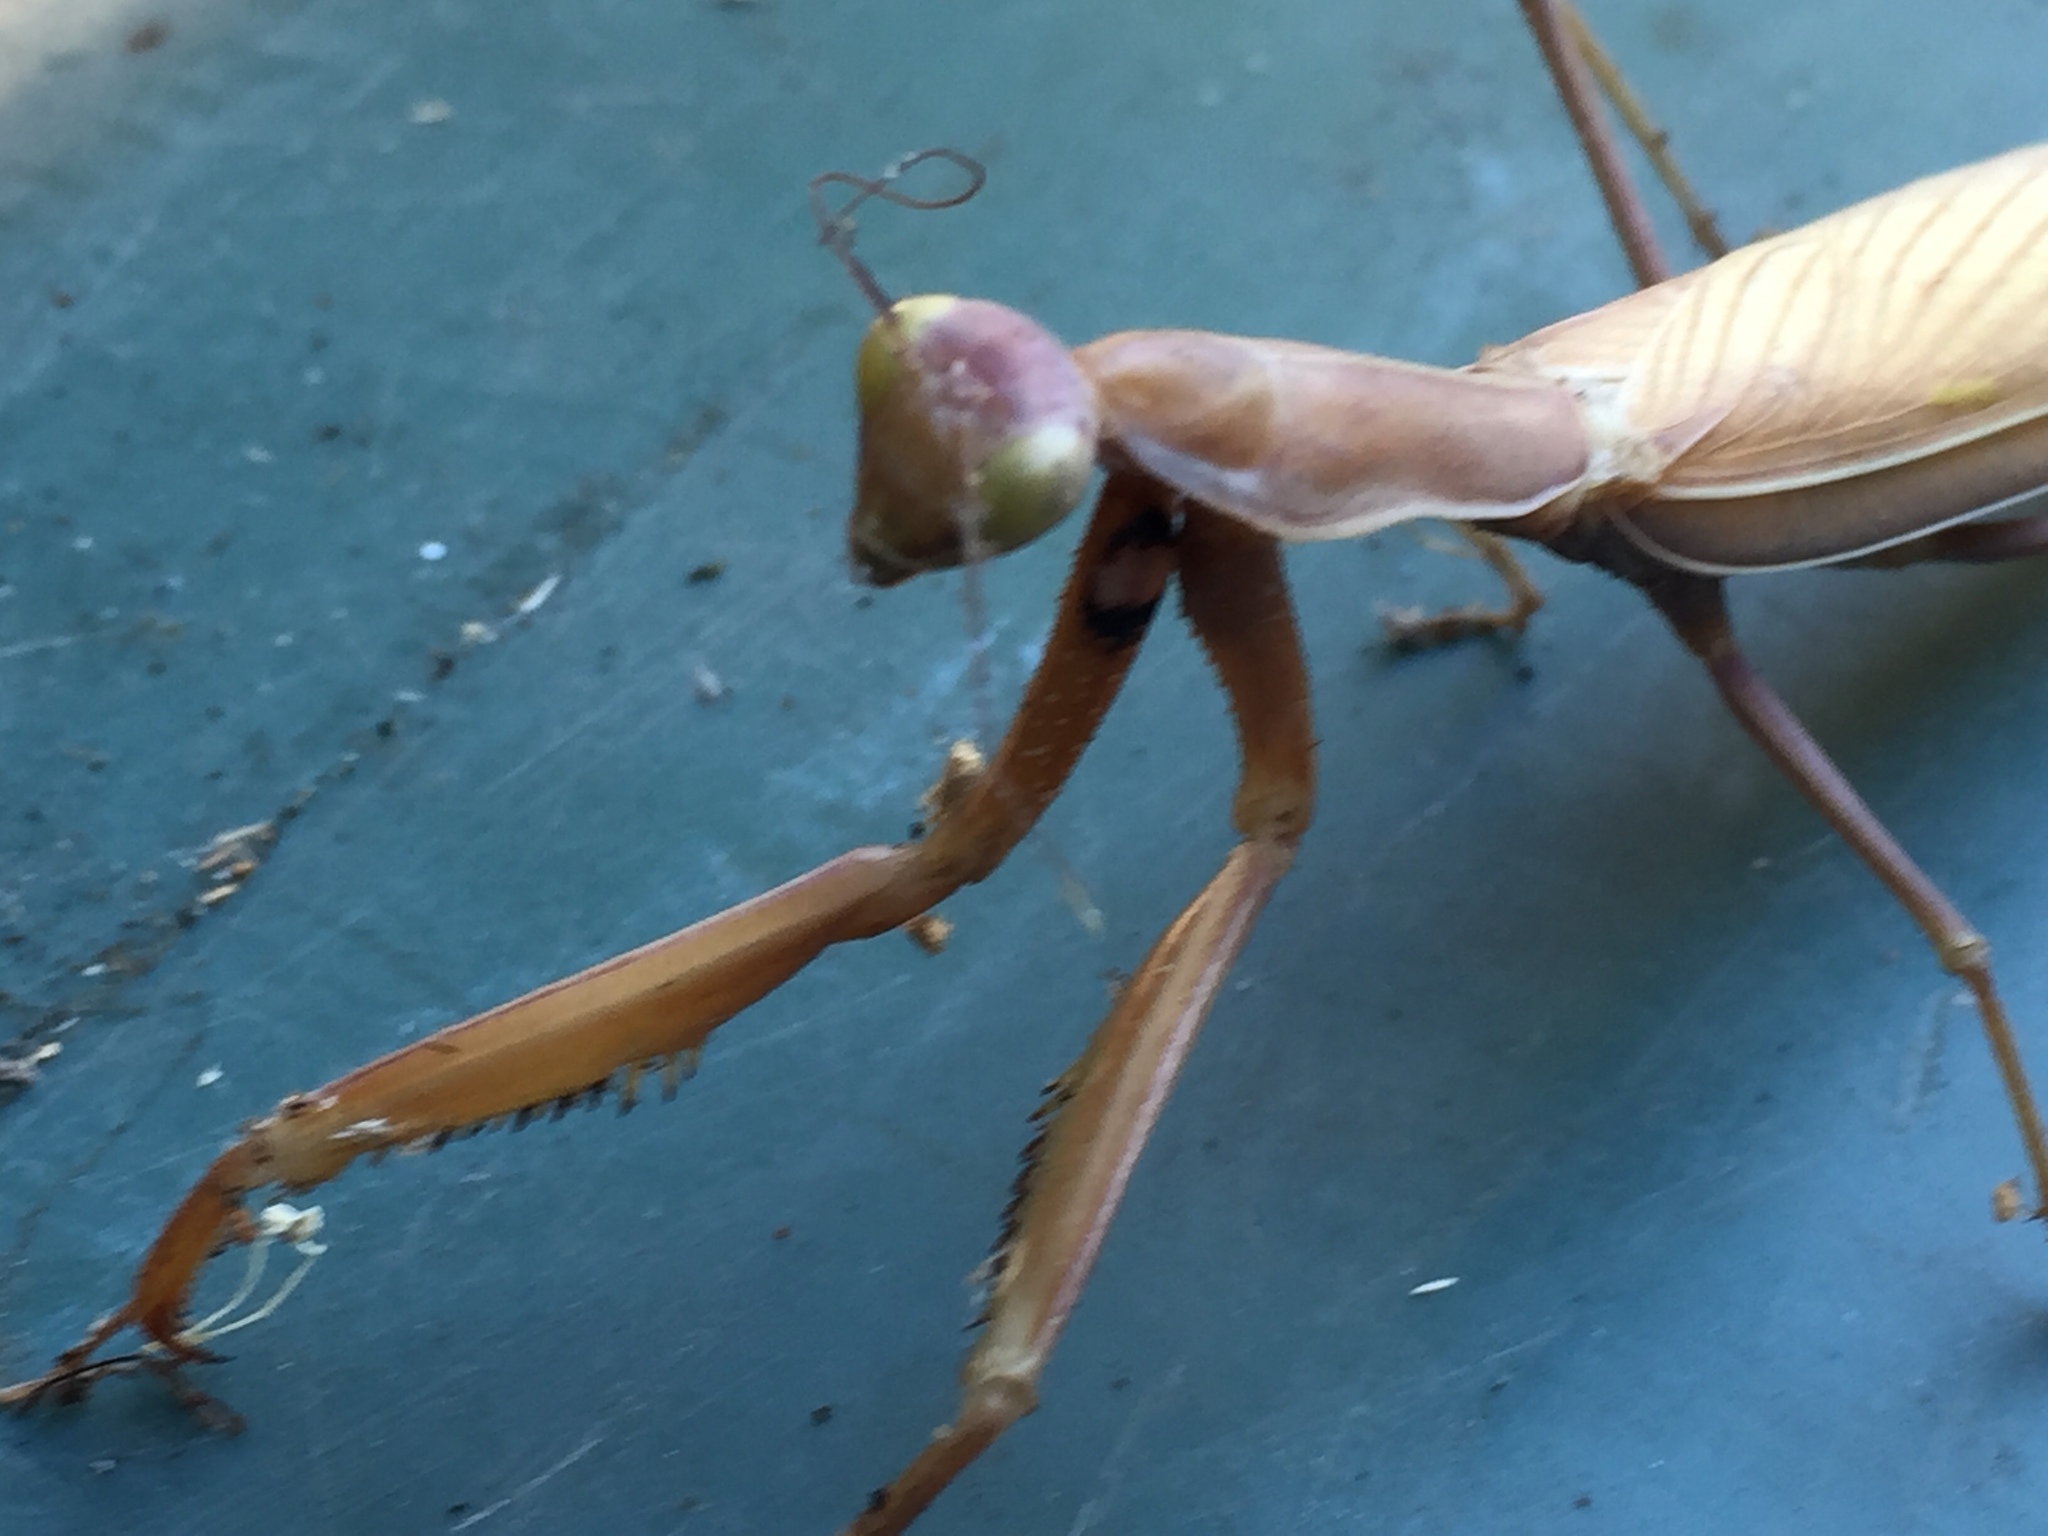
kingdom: Animalia
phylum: Arthropoda
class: Insecta
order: Mantodea
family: Mantidae
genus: Mantis
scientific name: Mantis religiosa
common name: Praying mantis
